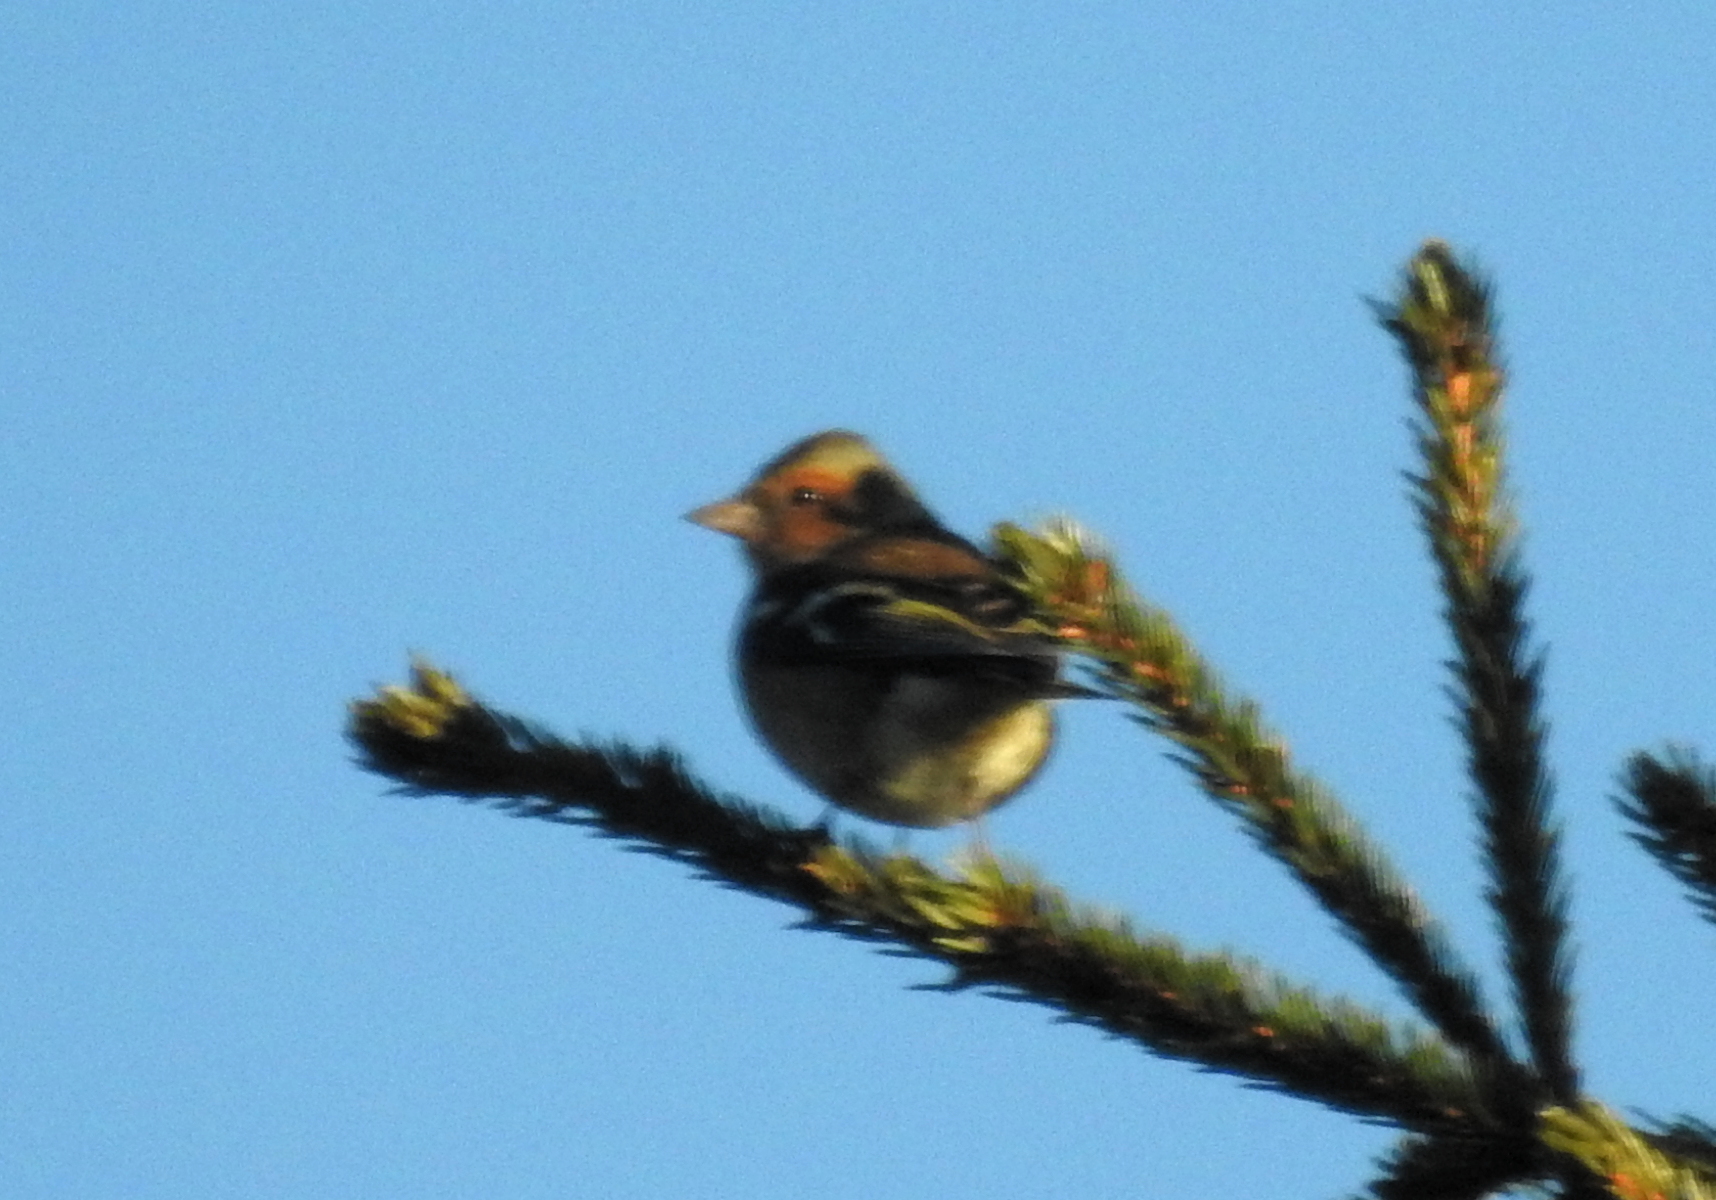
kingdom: Animalia
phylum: Chordata
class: Aves
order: Passeriformes
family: Fringillidae
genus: Fringilla
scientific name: Fringilla coelebs
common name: Common chaffinch
